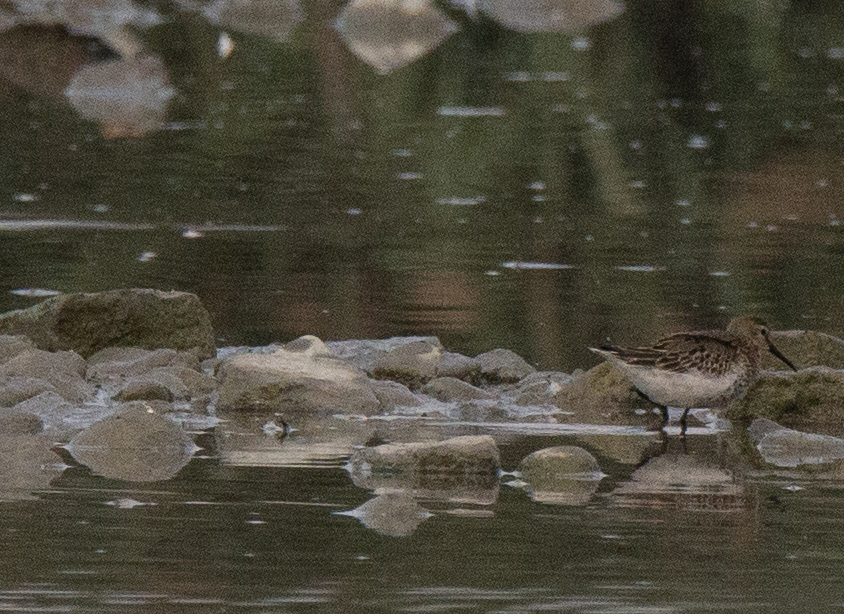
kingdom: Animalia
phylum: Chordata
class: Aves
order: Charadriiformes
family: Scolopacidae
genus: Calidris
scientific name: Calidris alpina
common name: Dunlin
